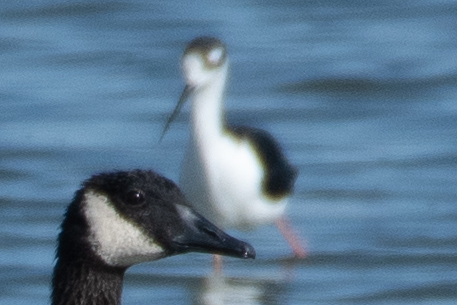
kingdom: Animalia
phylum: Chordata
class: Aves
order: Charadriiformes
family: Recurvirostridae
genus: Himantopus
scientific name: Himantopus mexicanus
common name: Black-necked stilt
